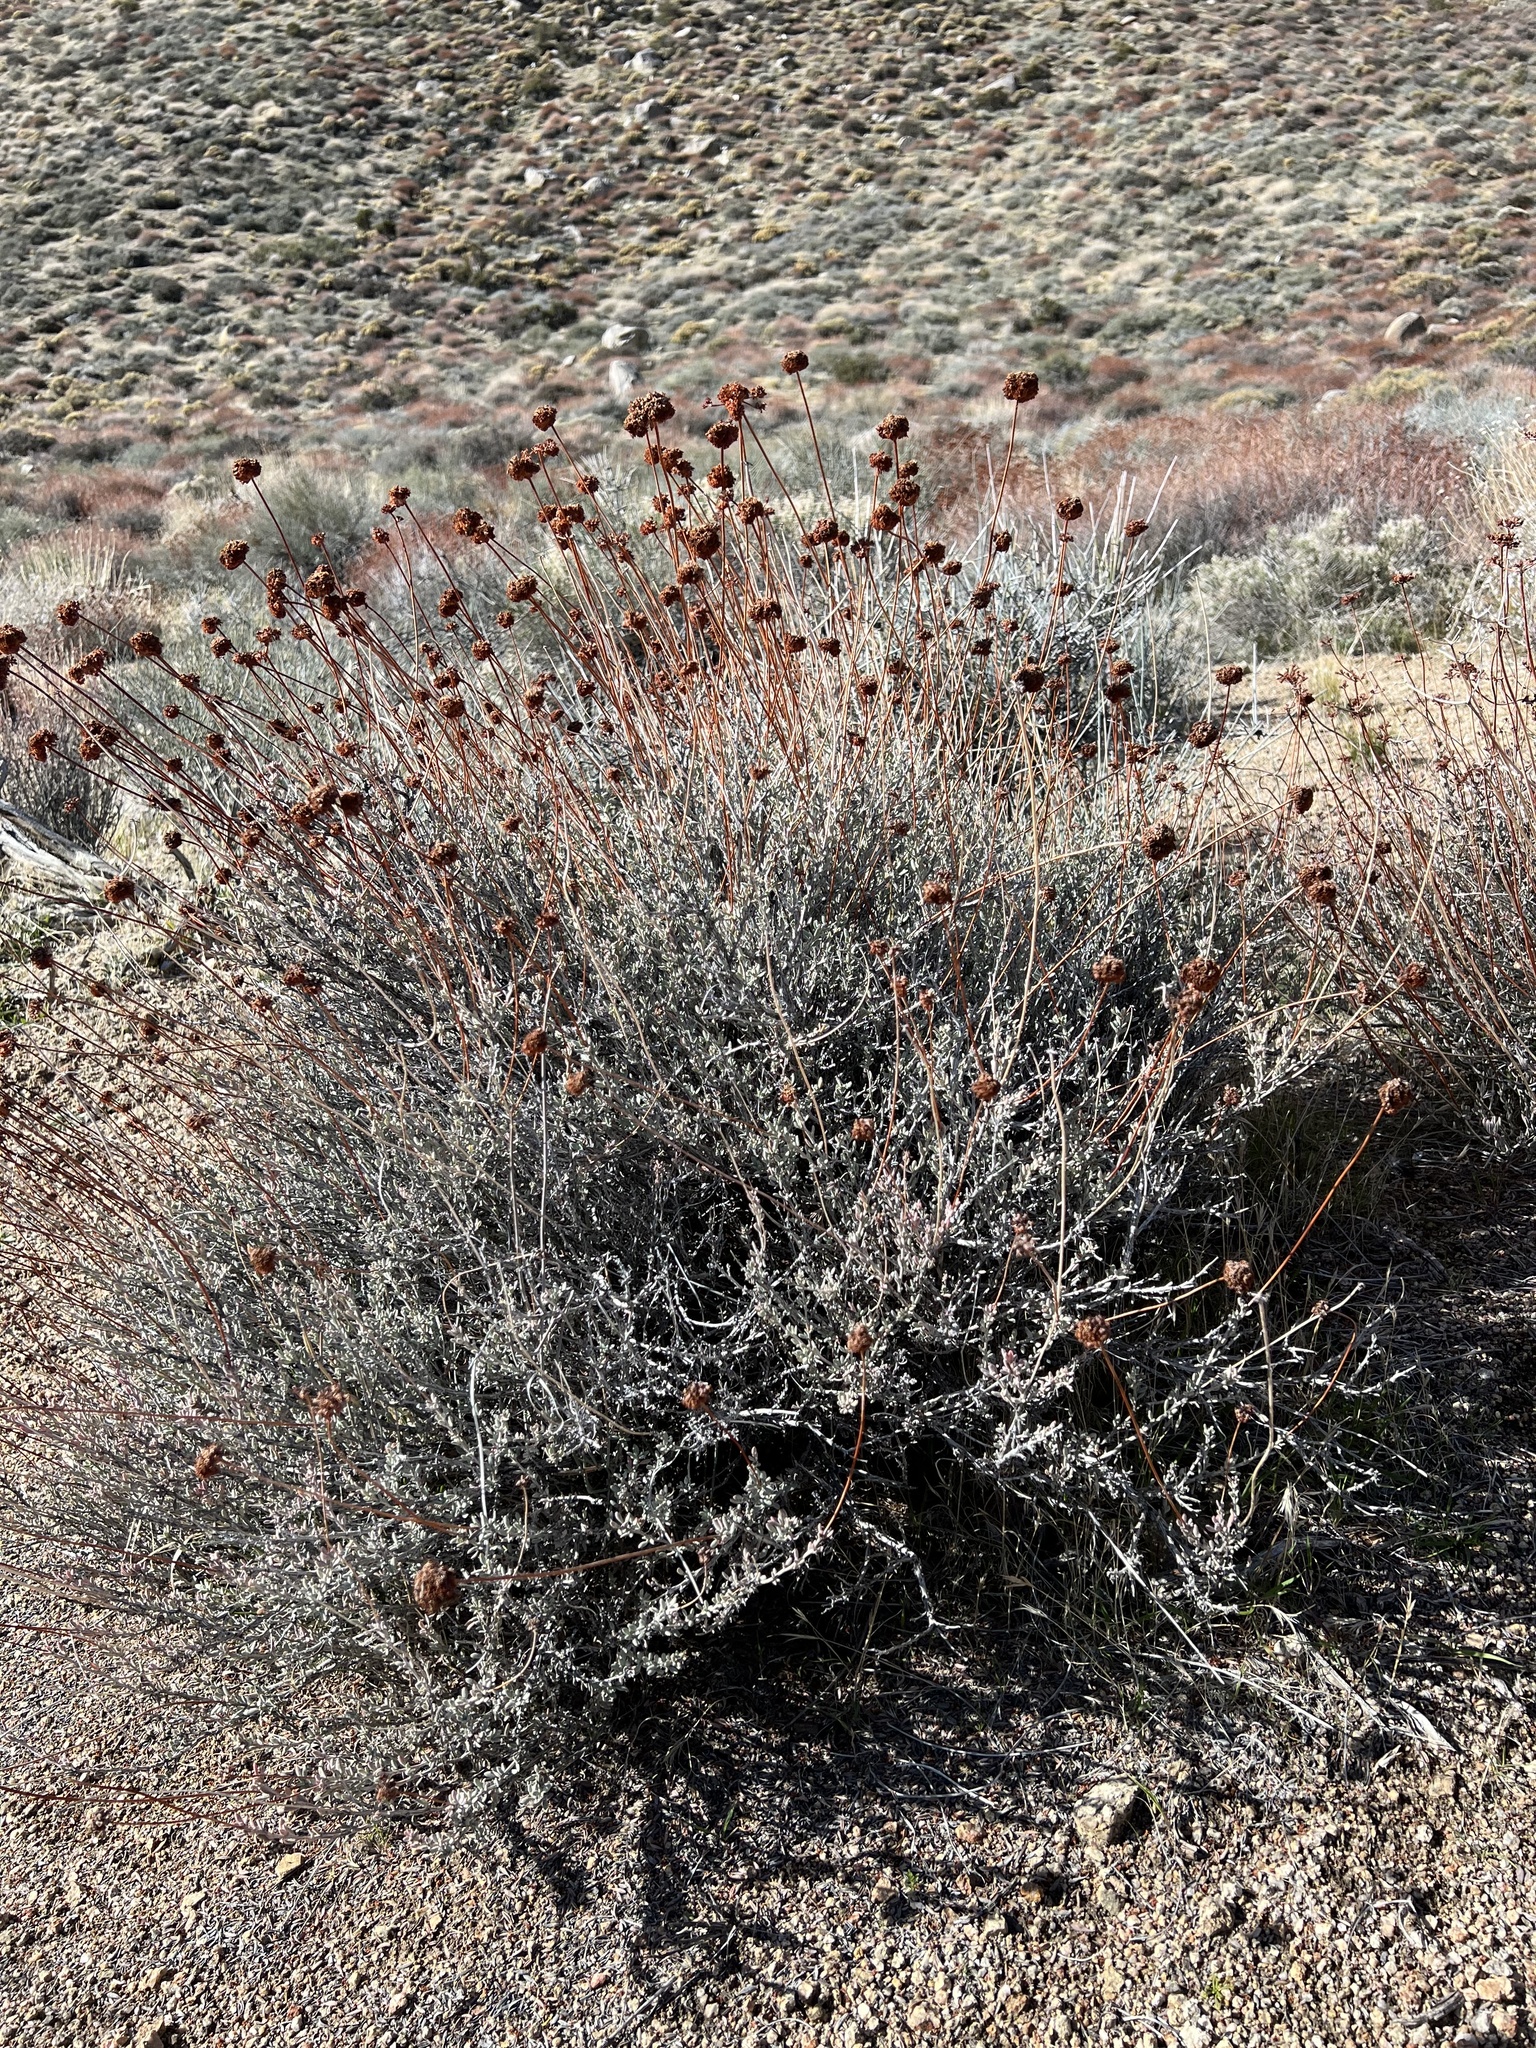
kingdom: Plantae
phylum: Tracheophyta
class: Magnoliopsida
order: Caryophyllales
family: Polygonaceae
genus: Eriogonum
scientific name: Eriogonum fasciculatum
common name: California wild buckwheat
